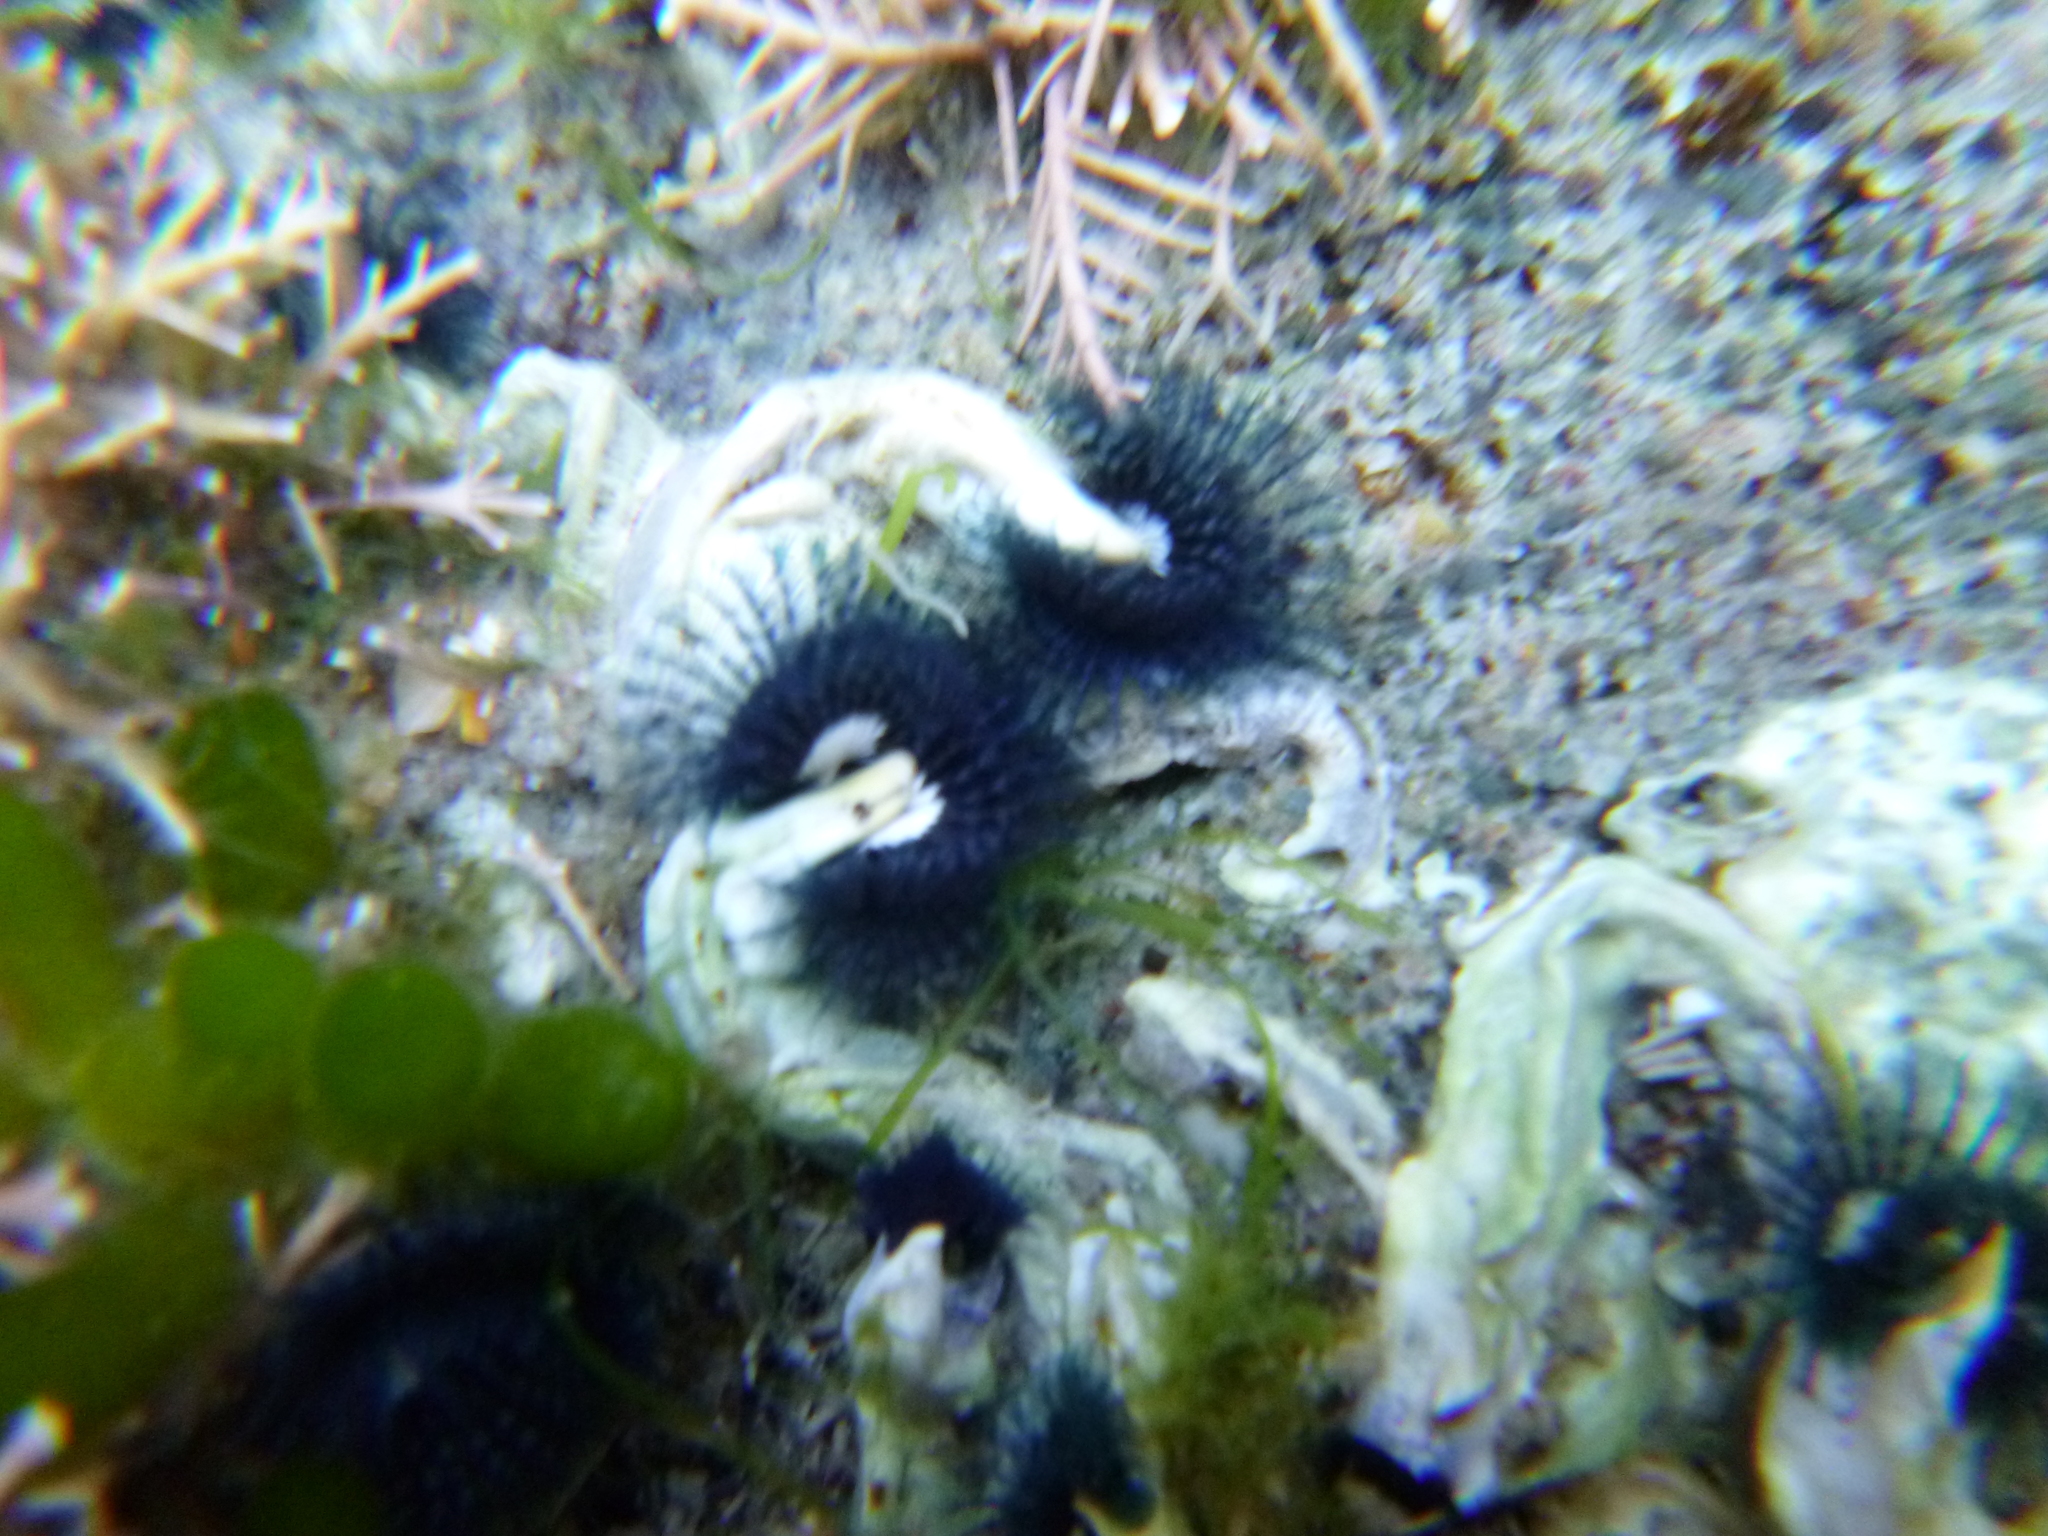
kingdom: Animalia
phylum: Annelida
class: Polychaeta
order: Sabellida
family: Serpulidae
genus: Spirobranchus
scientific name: Spirobranchus cariniferus
